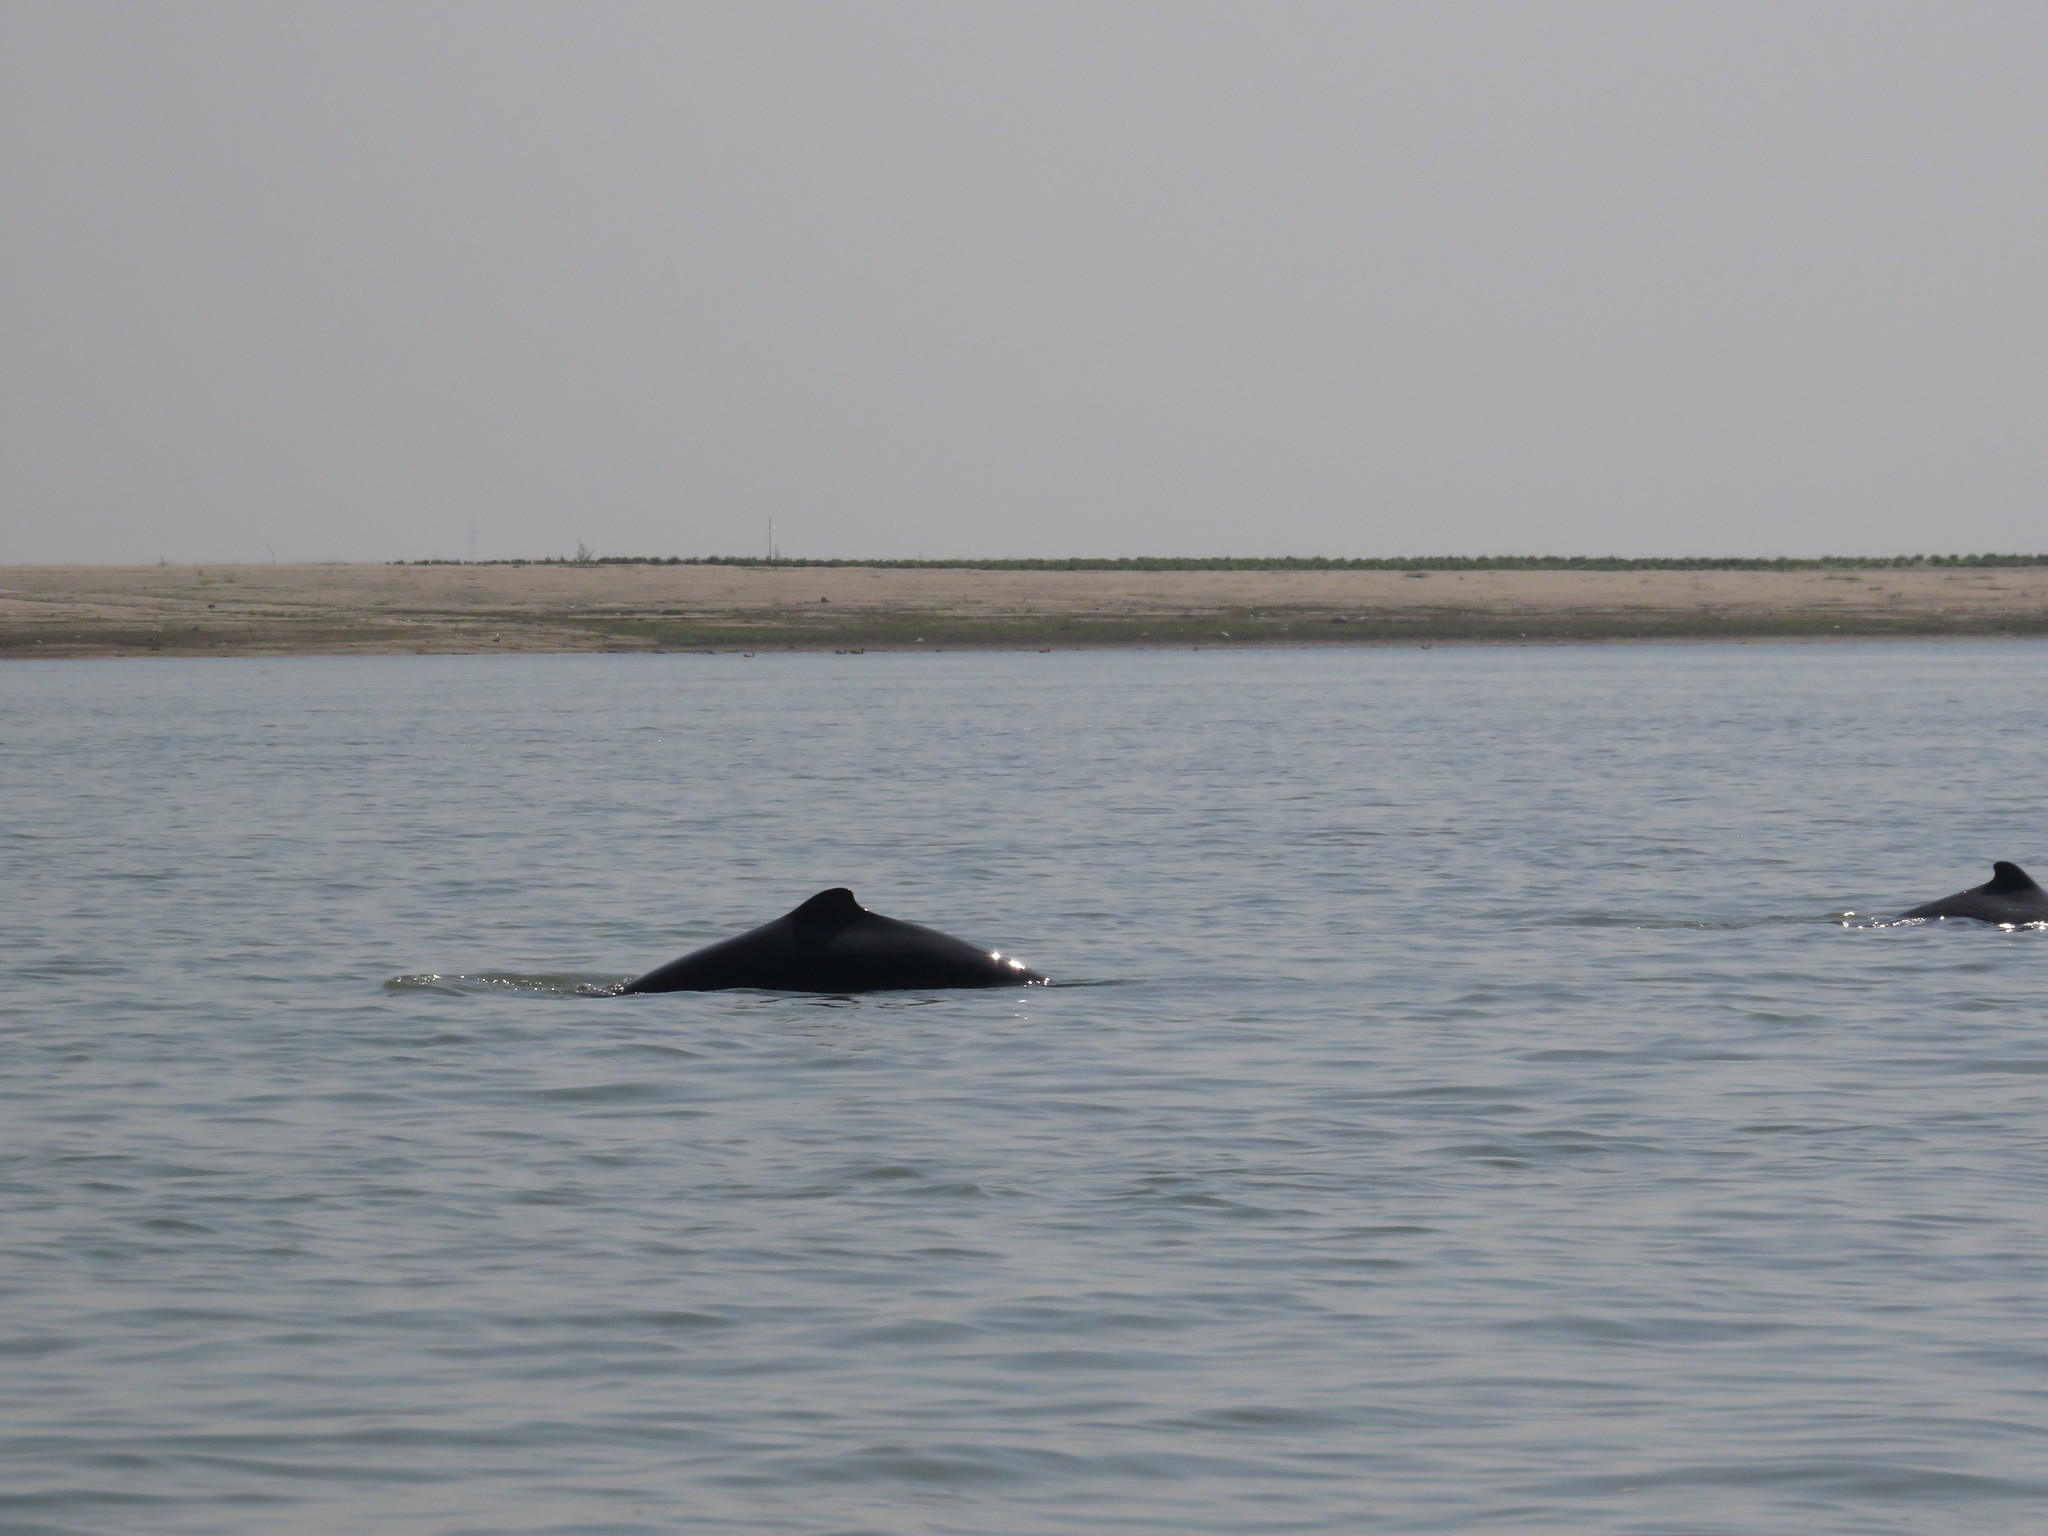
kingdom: Animalia
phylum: Chordata
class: Mammalia
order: Cetacea
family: Delphinidae
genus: Orcaella
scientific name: Orcaella brevirostris
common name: Irrawaddy dolphin
